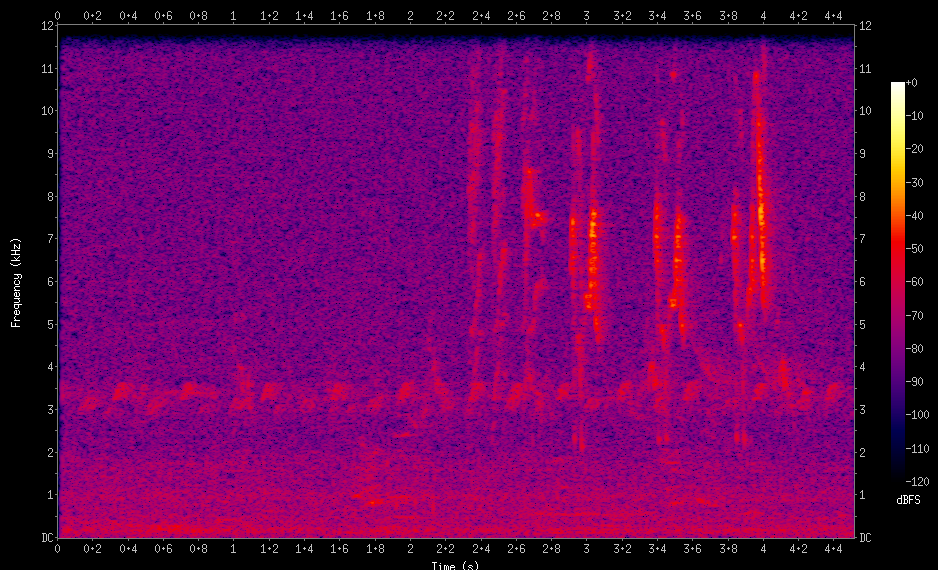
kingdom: Animalia
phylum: Chordata
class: Aves
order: Passeriformes
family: Thraupidae
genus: Rauenia
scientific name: Rauenia bonariensis
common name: Blue-and-yellow tanager
